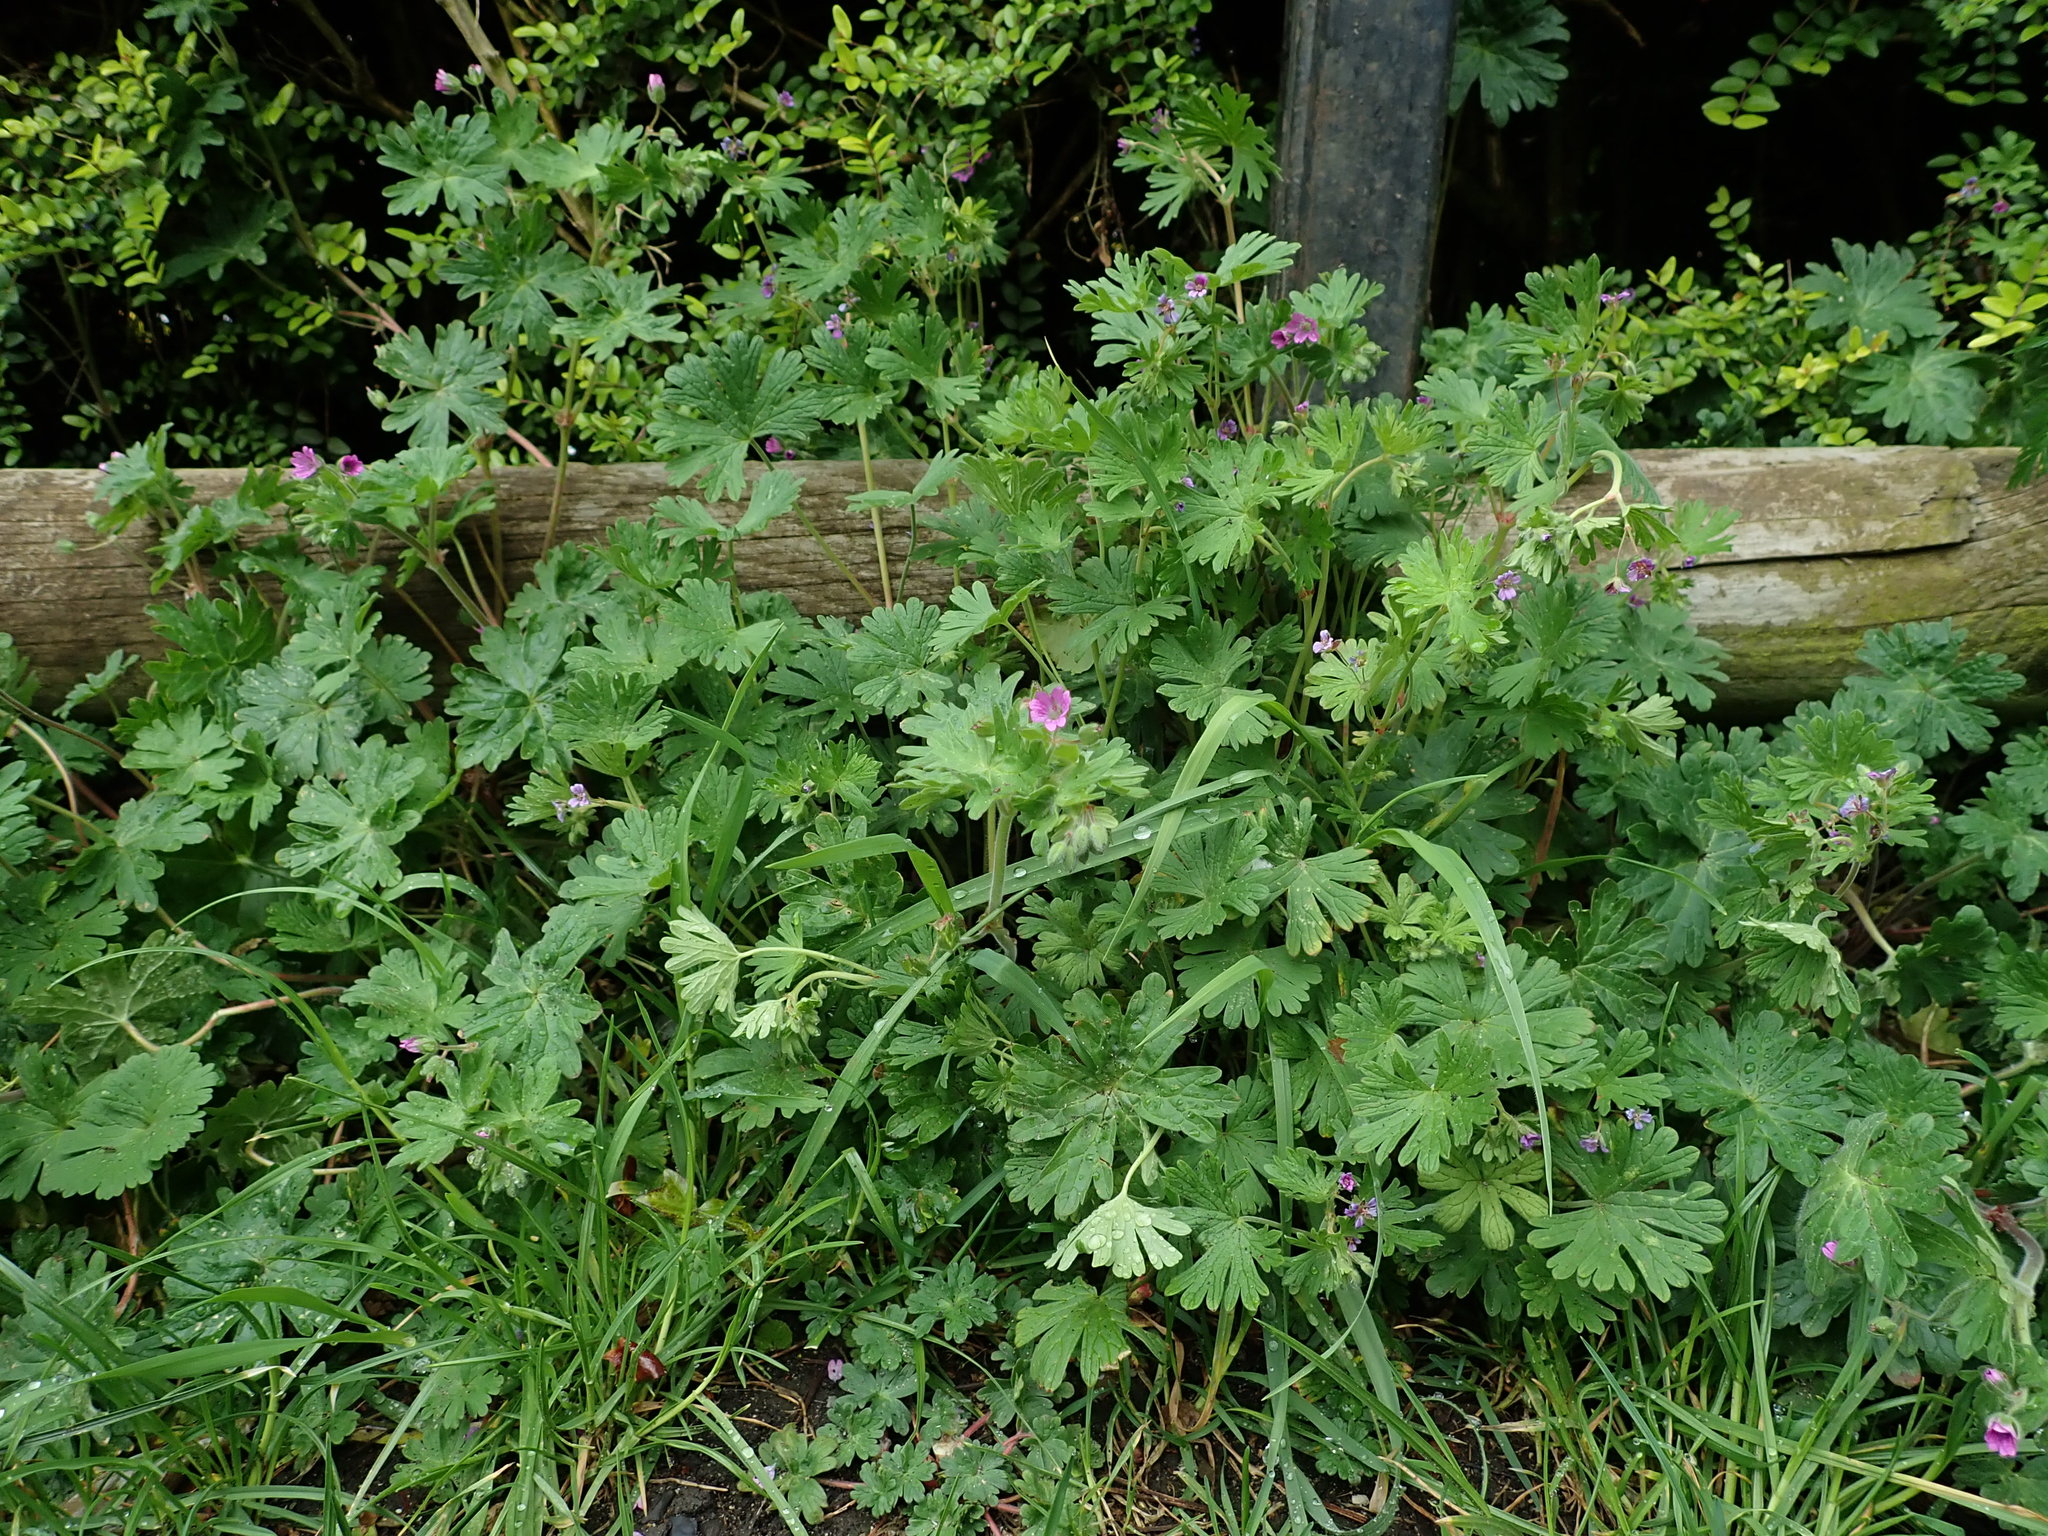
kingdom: Plantae
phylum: Tracheophyta
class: Magnoliopsida
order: Geraniales
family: Geraniaceae
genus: Geranium
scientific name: Geranium molle
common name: Dove's-foot crane's-bill
